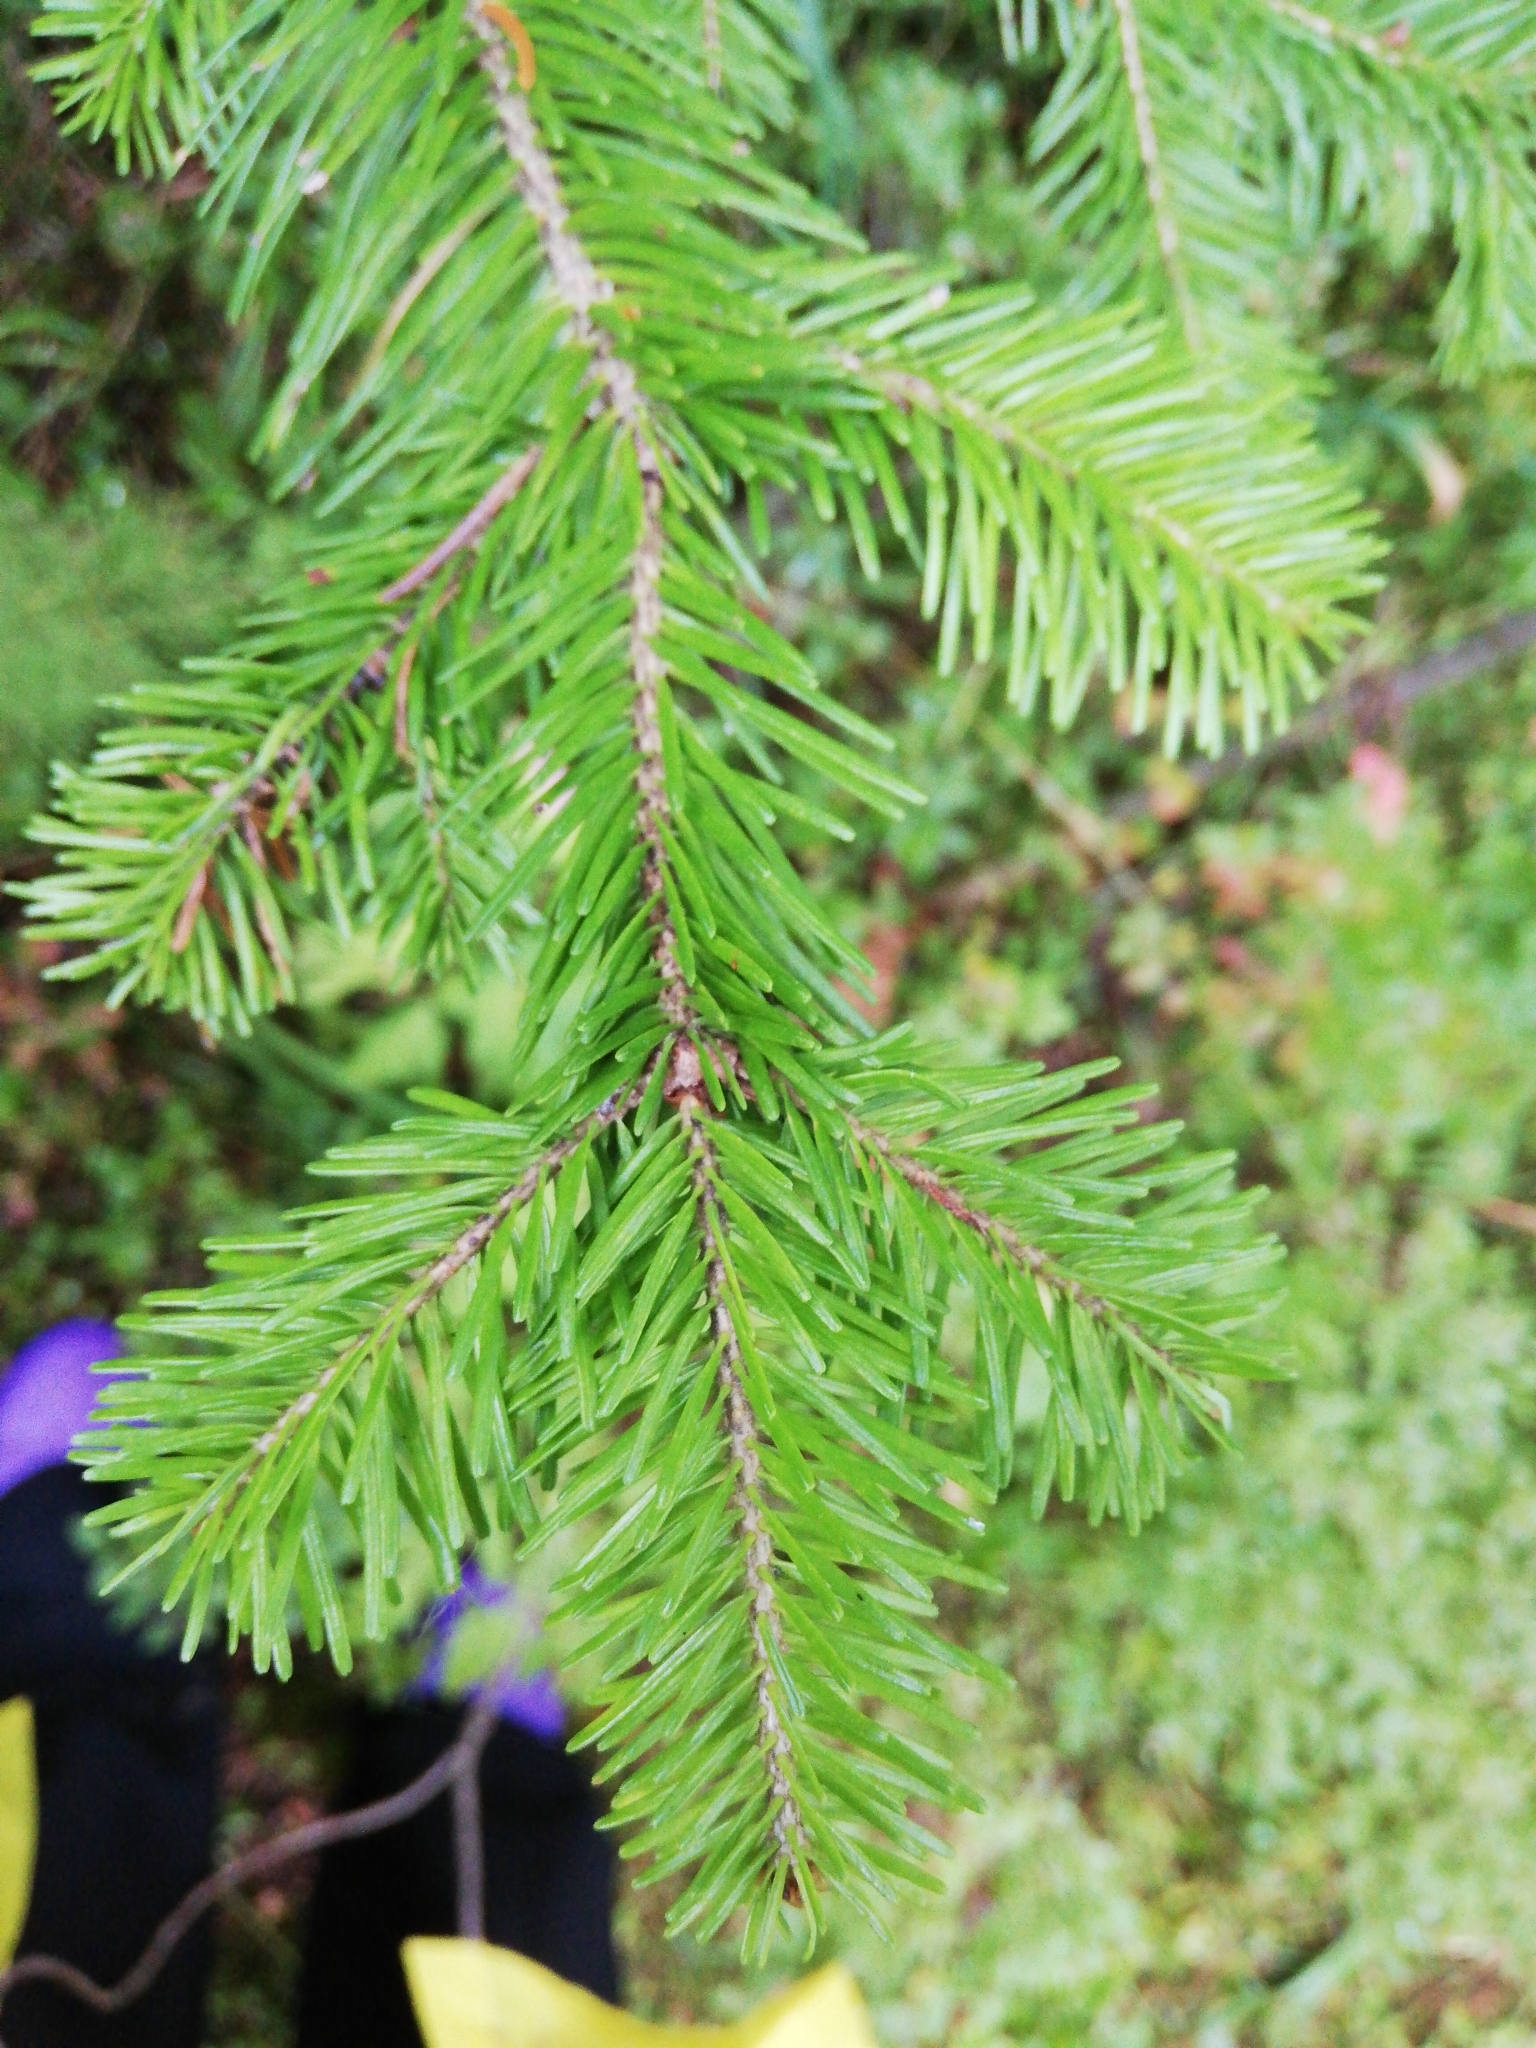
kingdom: Plantae
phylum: Tracheophyta
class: Pinopsida
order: Pinales
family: Pinaceae
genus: Abies
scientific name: Abies sibirica
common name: Siberian fir
